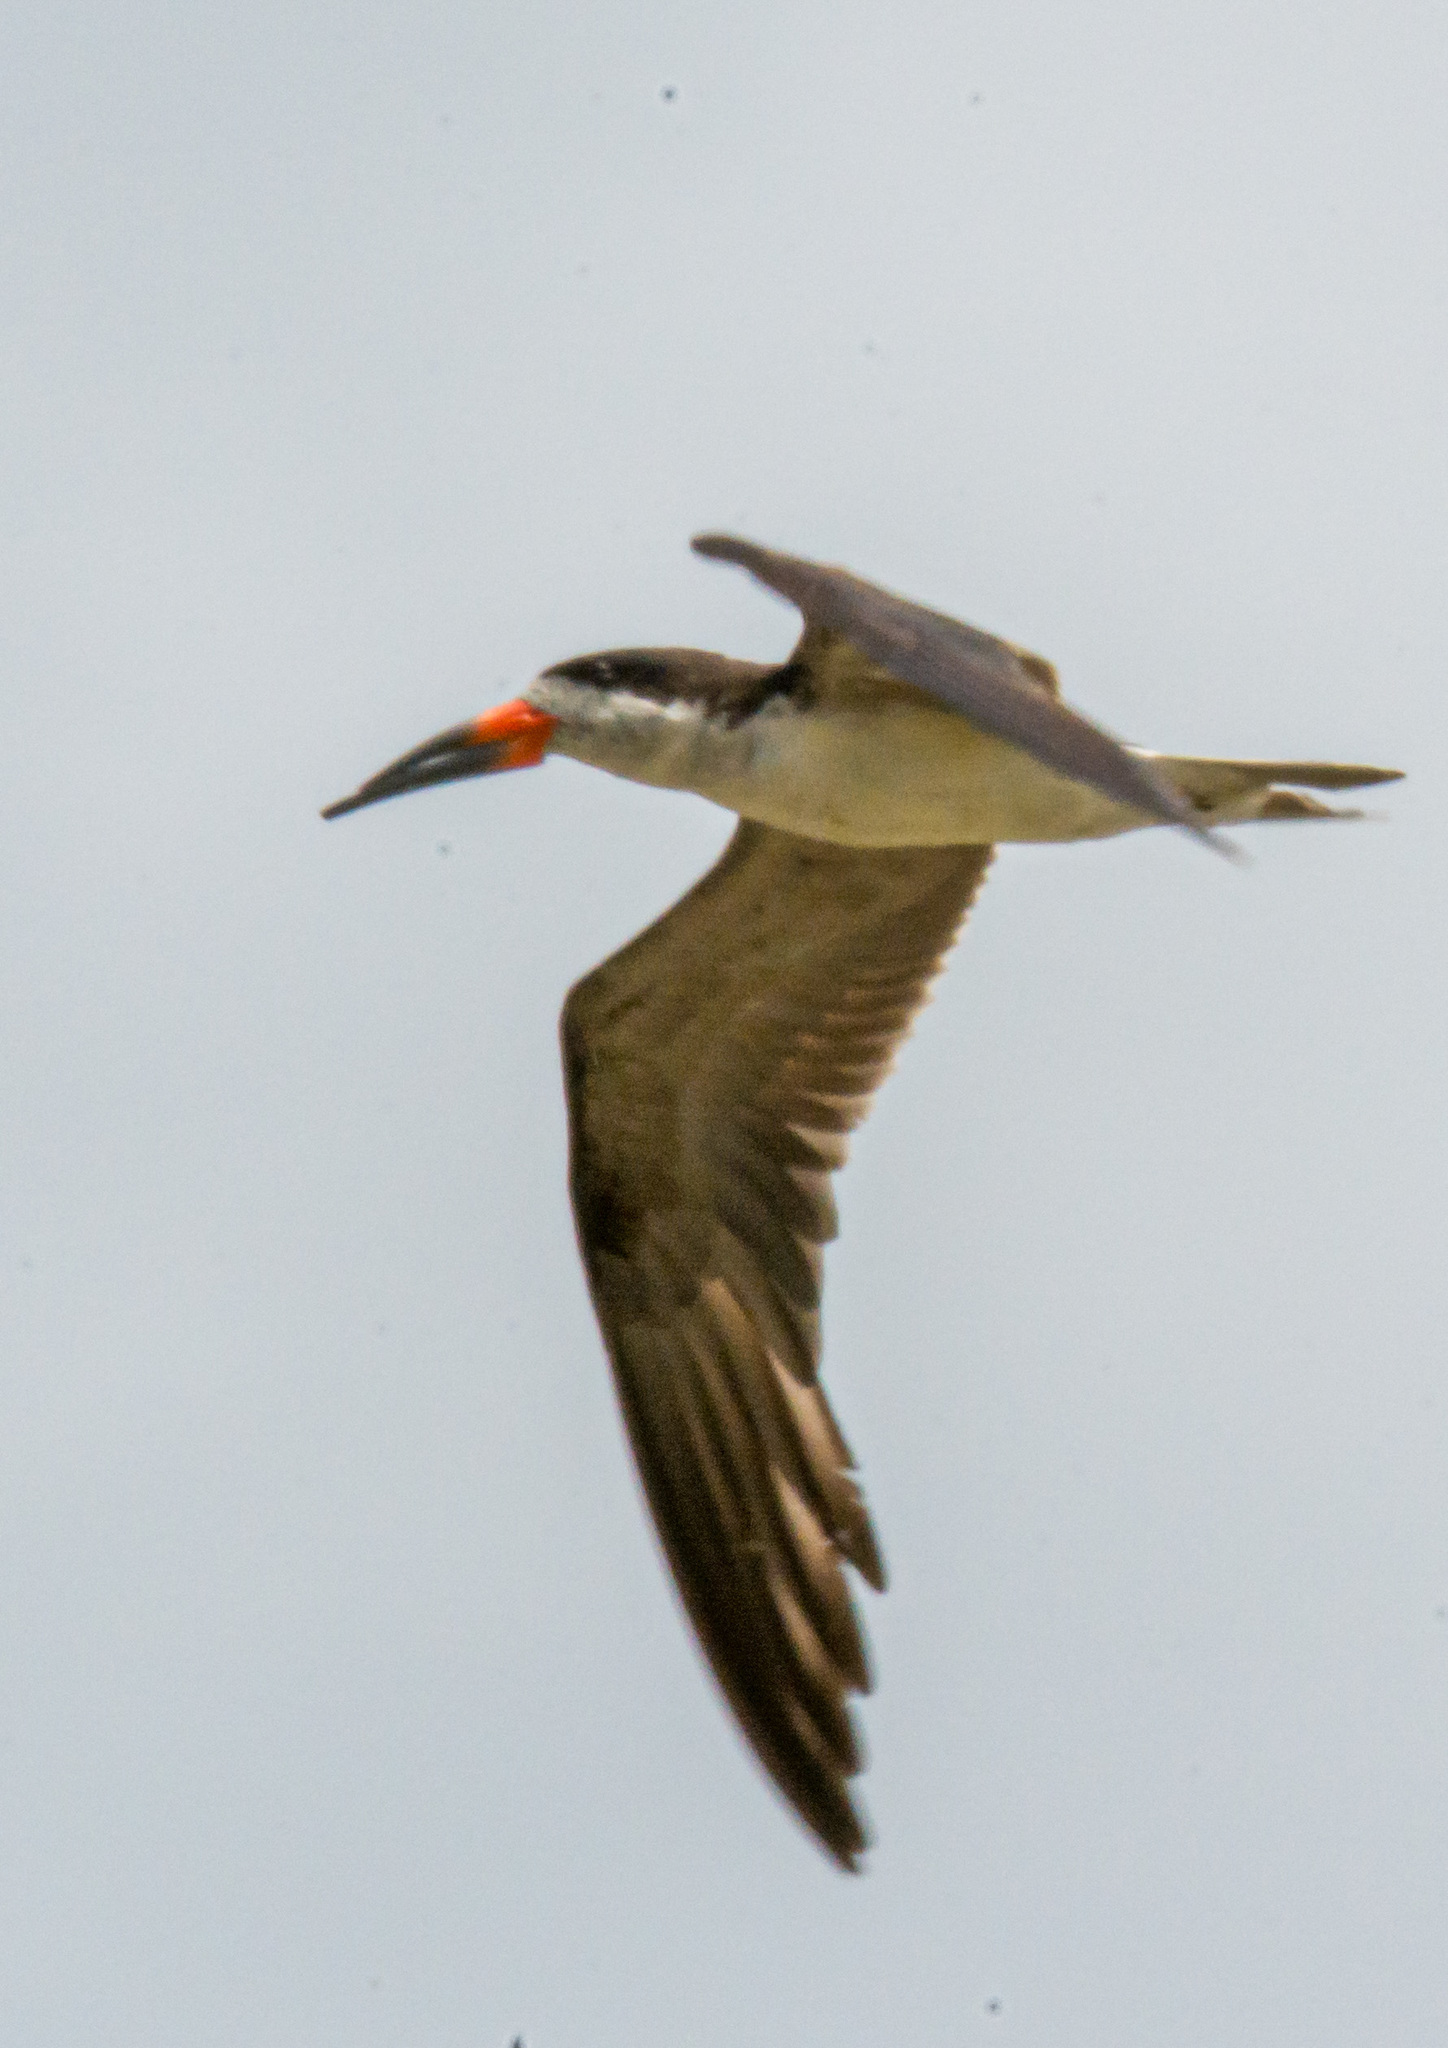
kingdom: Animalia
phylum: Chordata
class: Aves
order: Charadriiformes
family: Laridae
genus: Rynchops
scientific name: Rynchops niger
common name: Black skimmer
